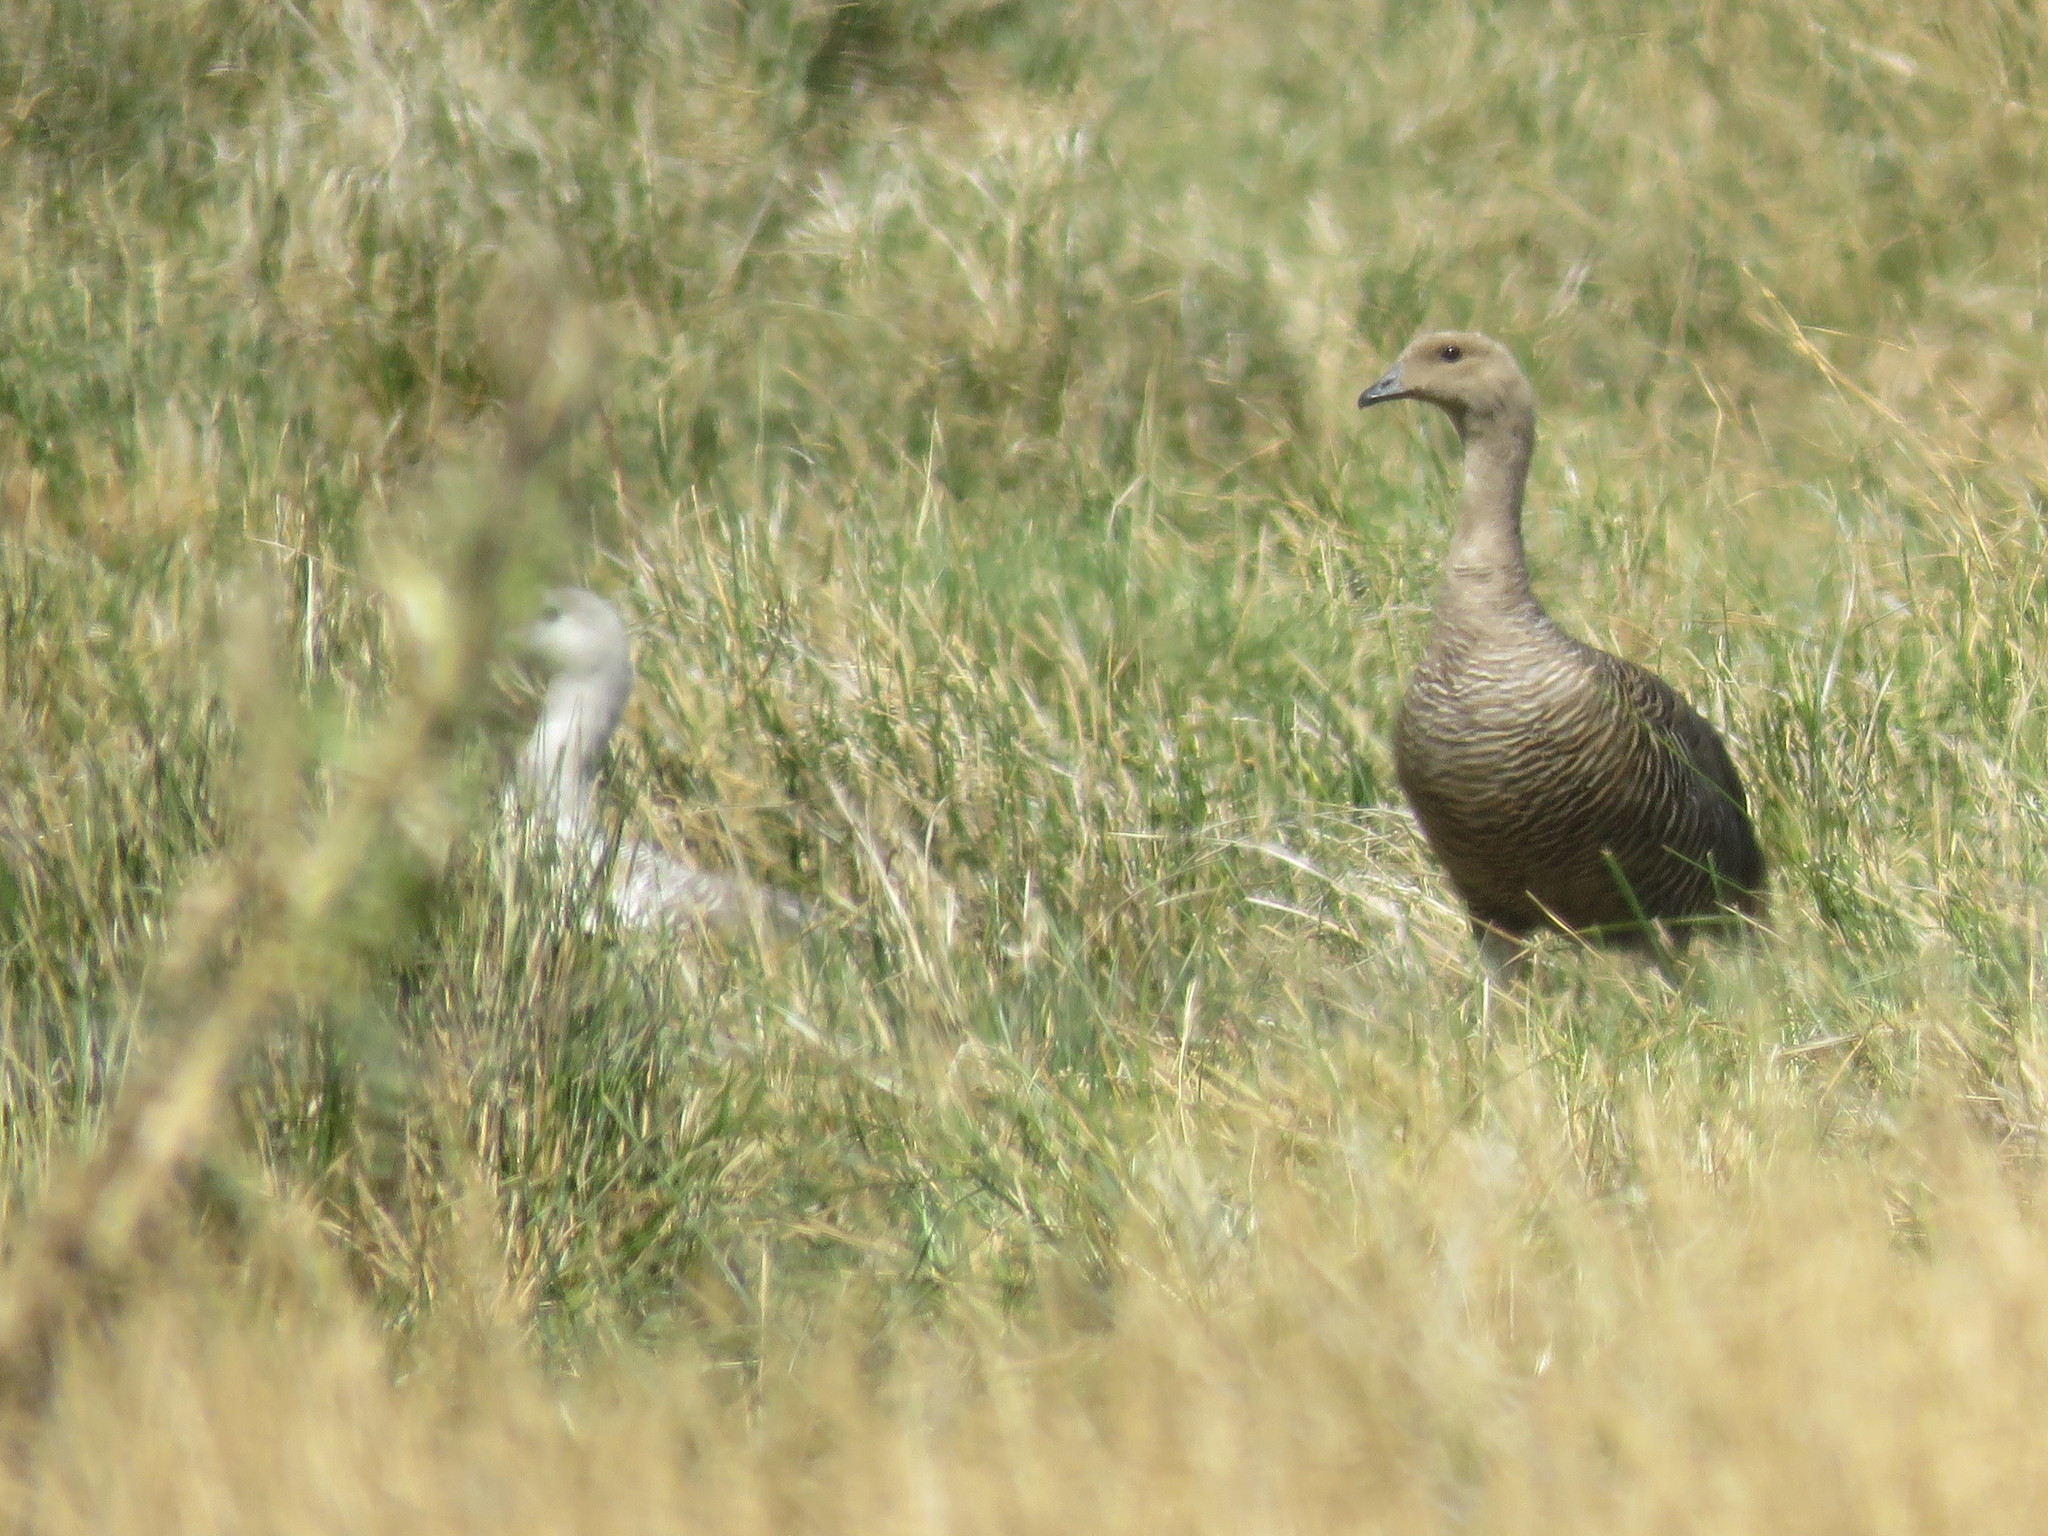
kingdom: Animalia
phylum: Chordata
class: Aves
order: Anseriformes
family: Anatidae
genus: Chloephaga
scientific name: Chloephaga picta
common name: Upland goose
